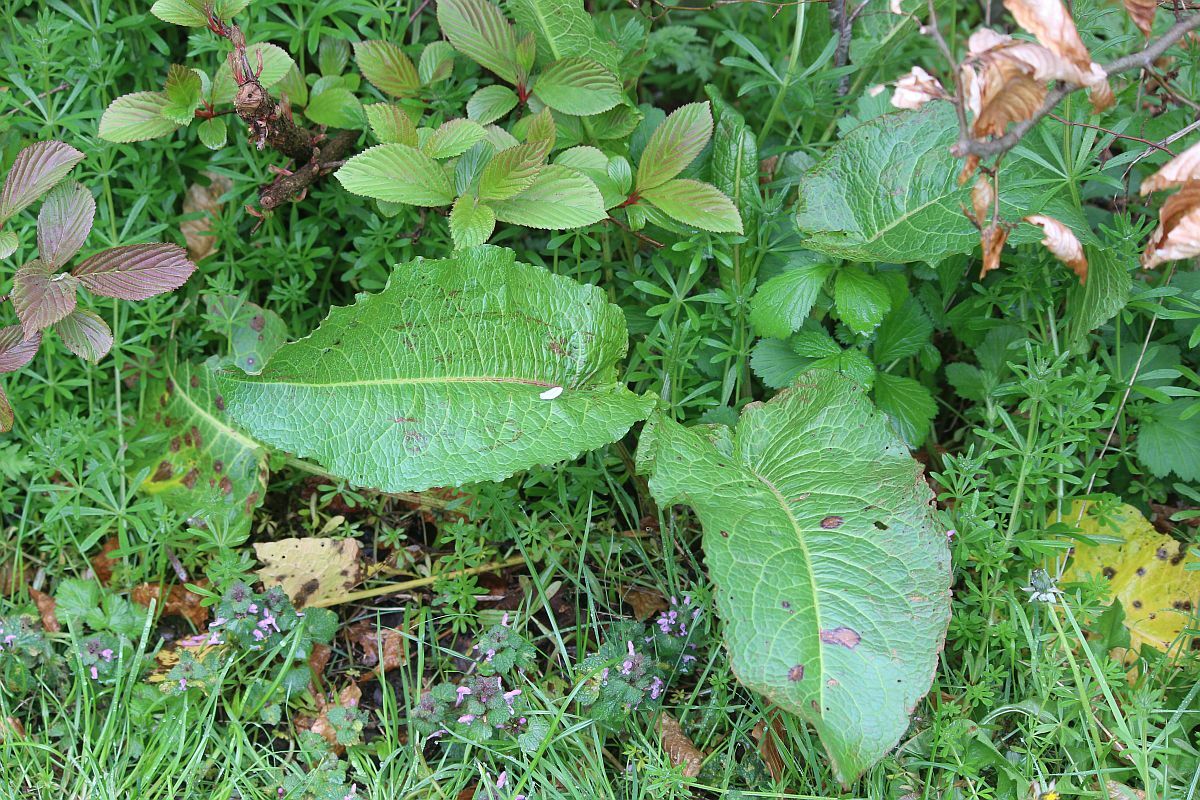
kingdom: Plantae
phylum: Tracheophyta
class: Magnoliopsida
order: Caryophyllales
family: Polygonaceae
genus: Rumex
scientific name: Rumex obtusifolius
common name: Bitter dock
